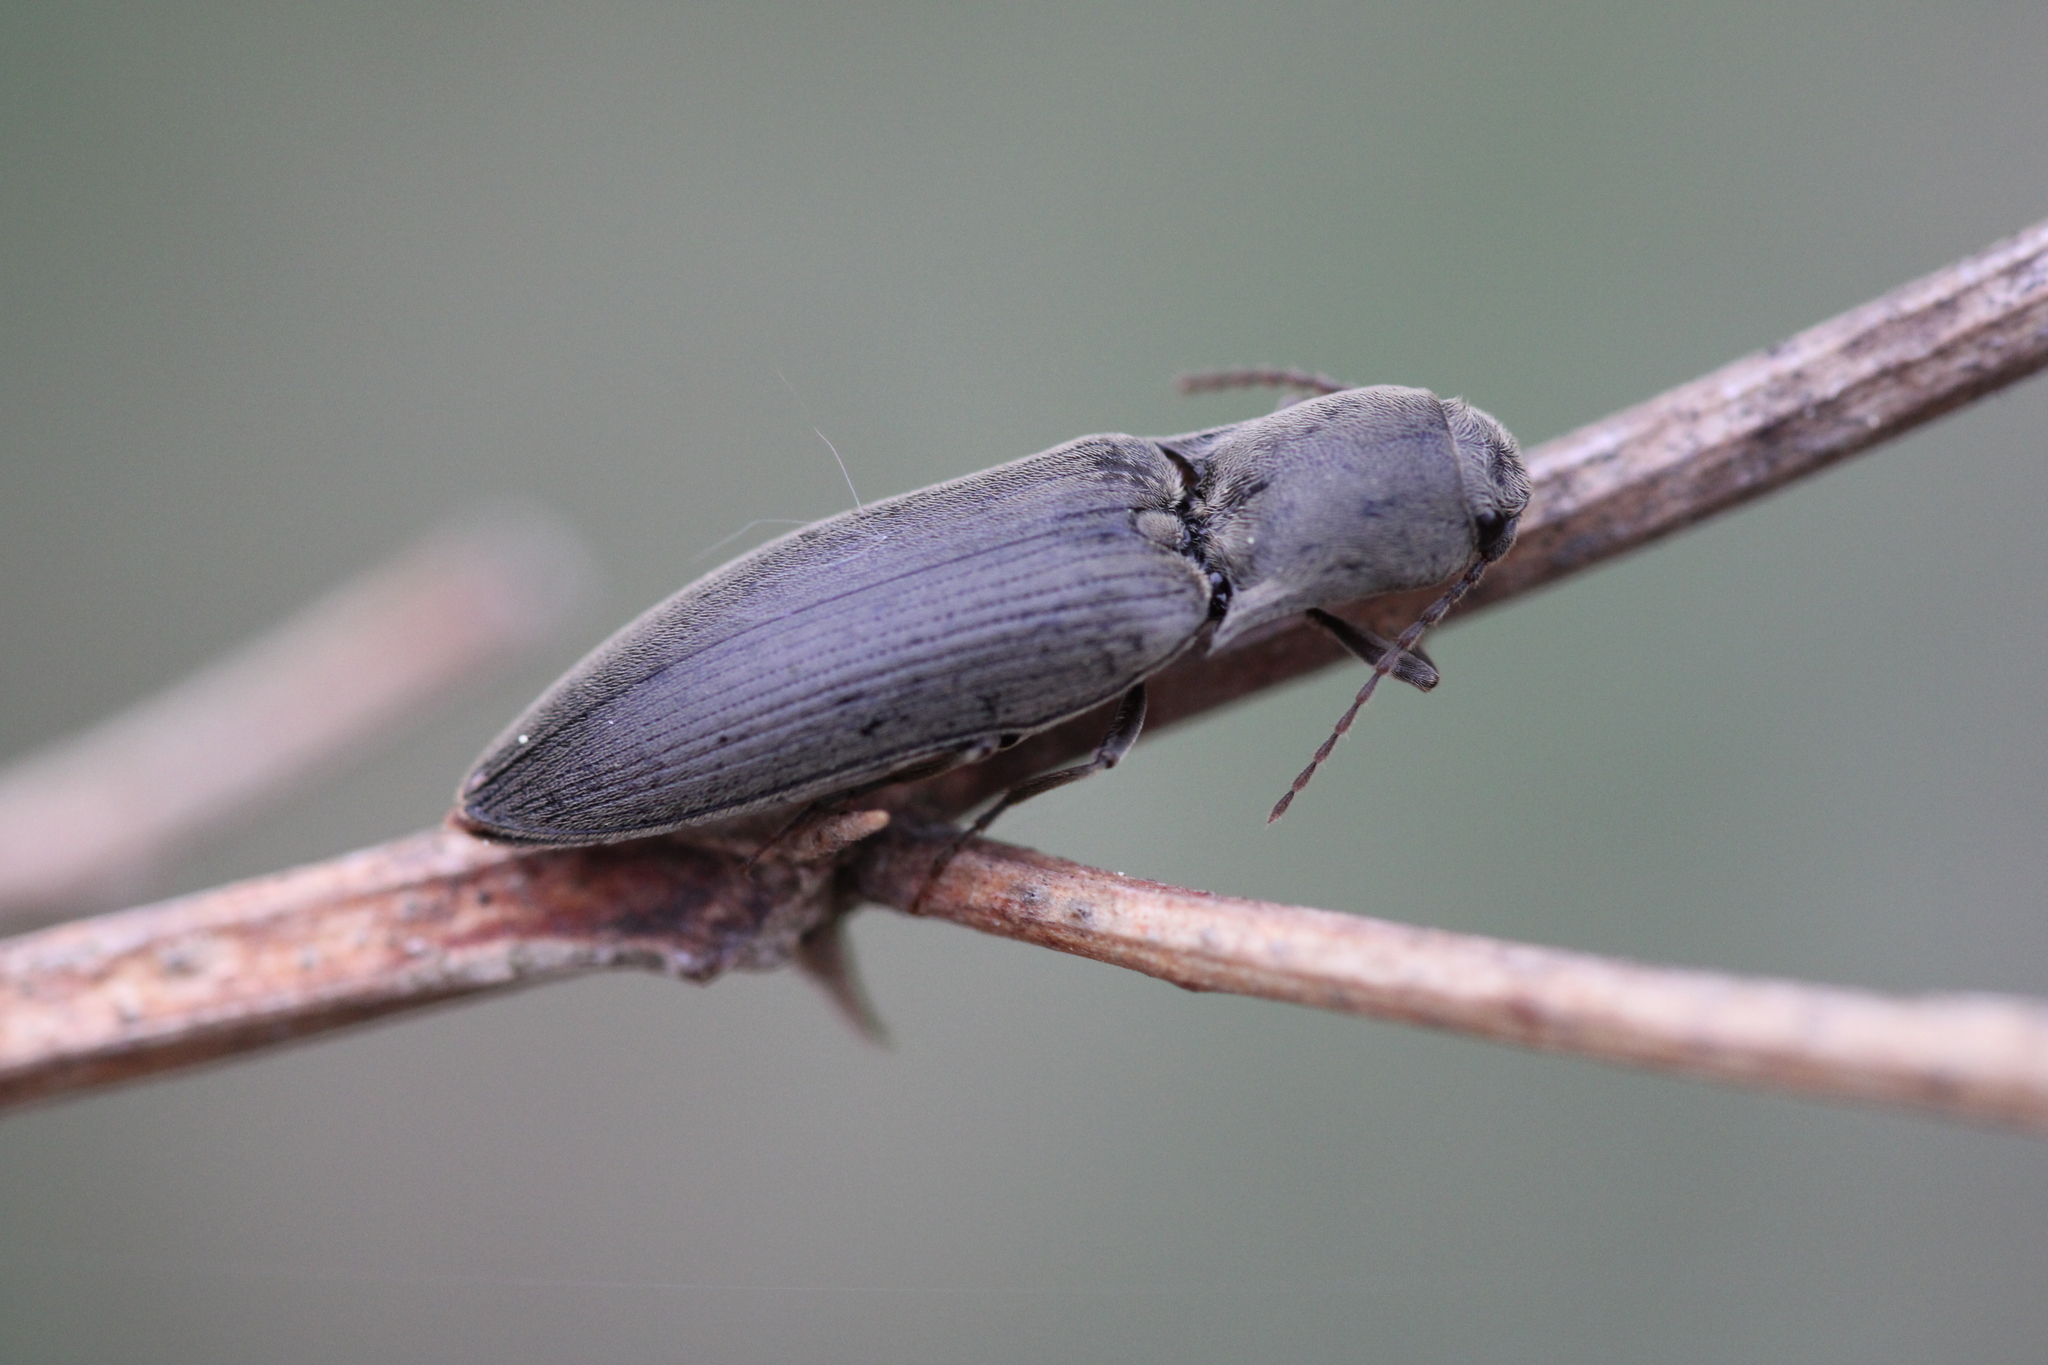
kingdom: Animalia
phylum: Arthropoda
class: Insecta
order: Coleoptera
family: Elateridae
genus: Agriotes
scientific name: Agriotes pilosellus
